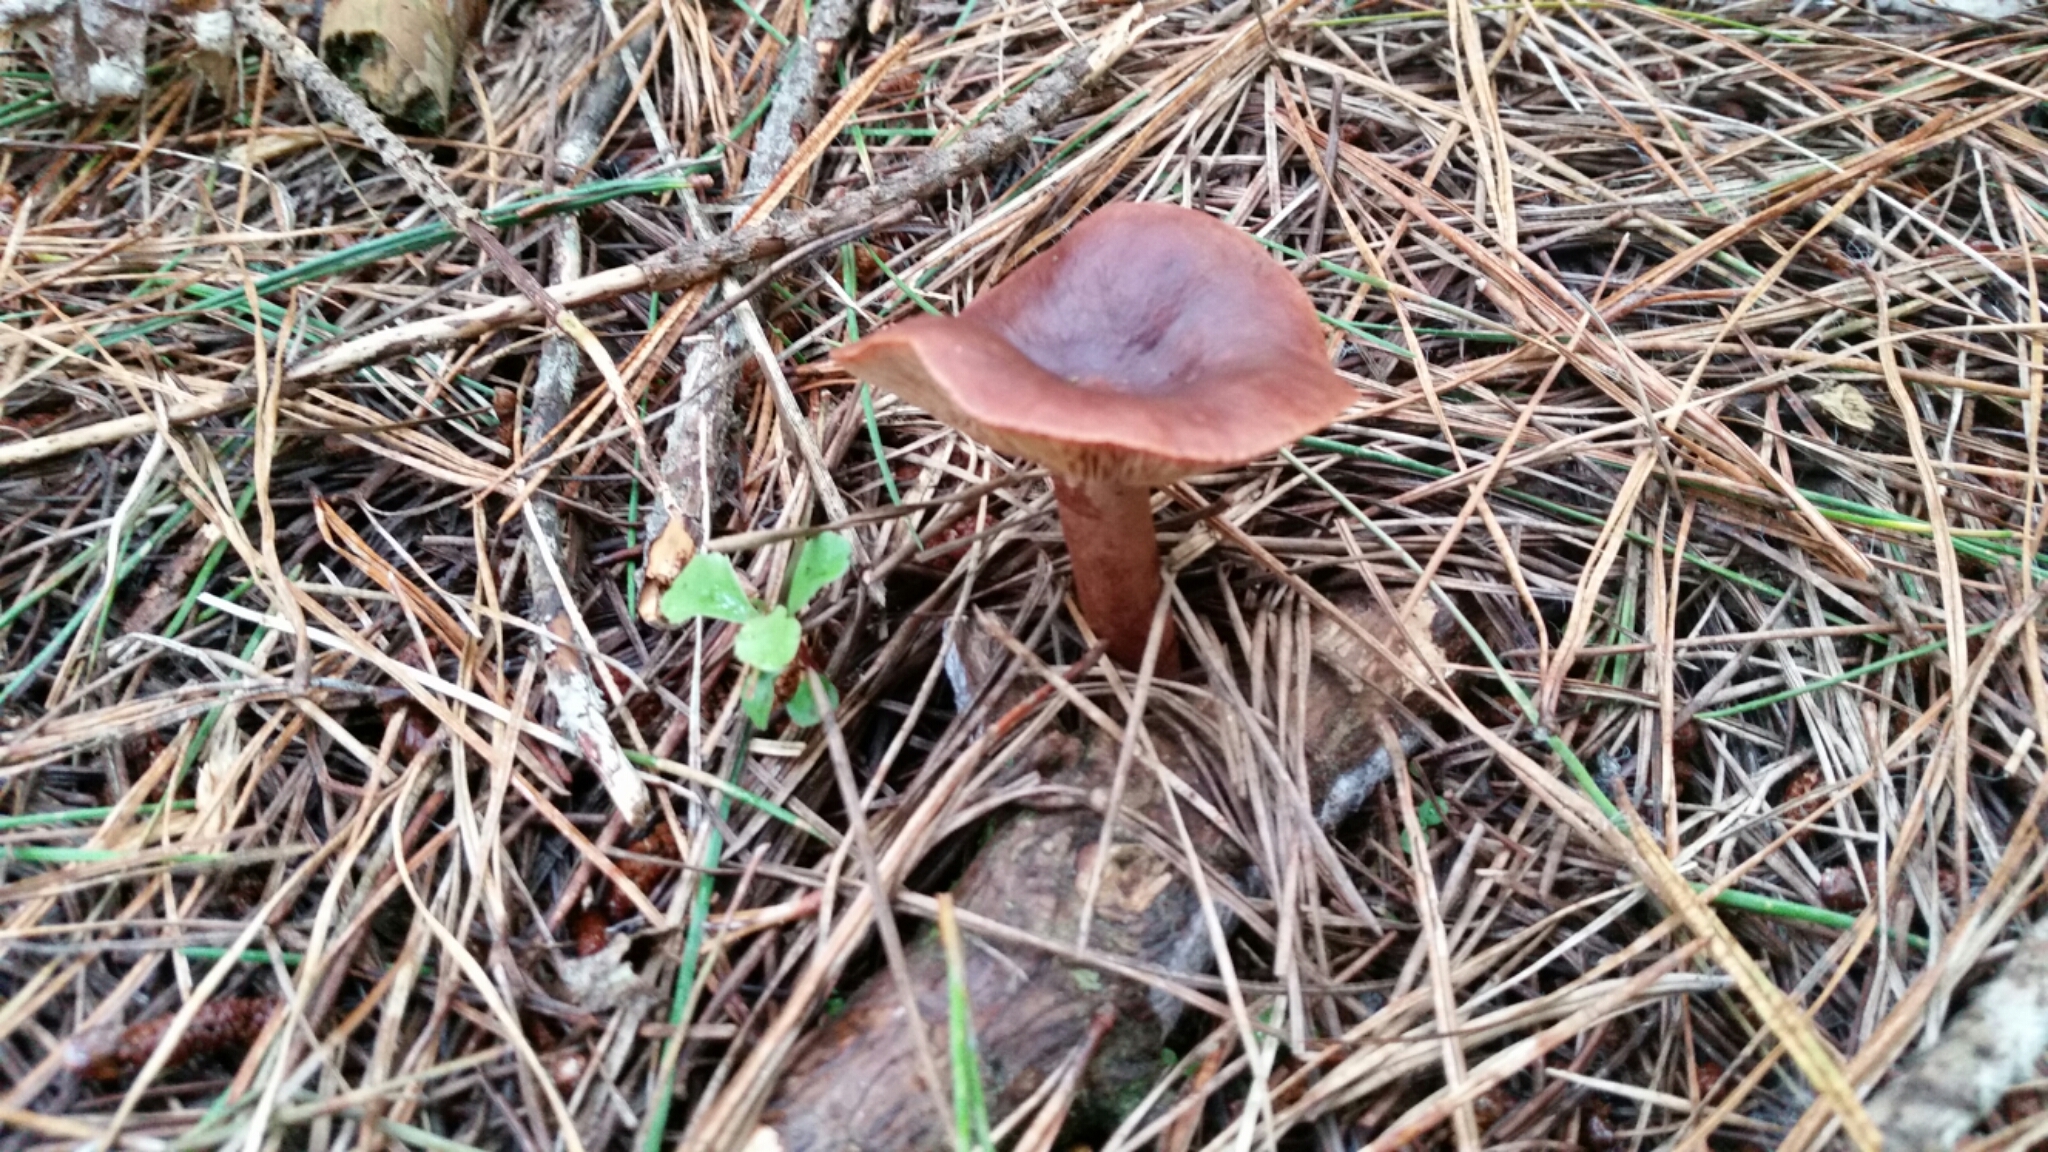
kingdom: Fungi
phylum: Basidiomycota
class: Agaricomycetes
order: Russulales
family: Russulaceae
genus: Lactarius
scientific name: Lactarius rufus
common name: Rufous milk-cap
